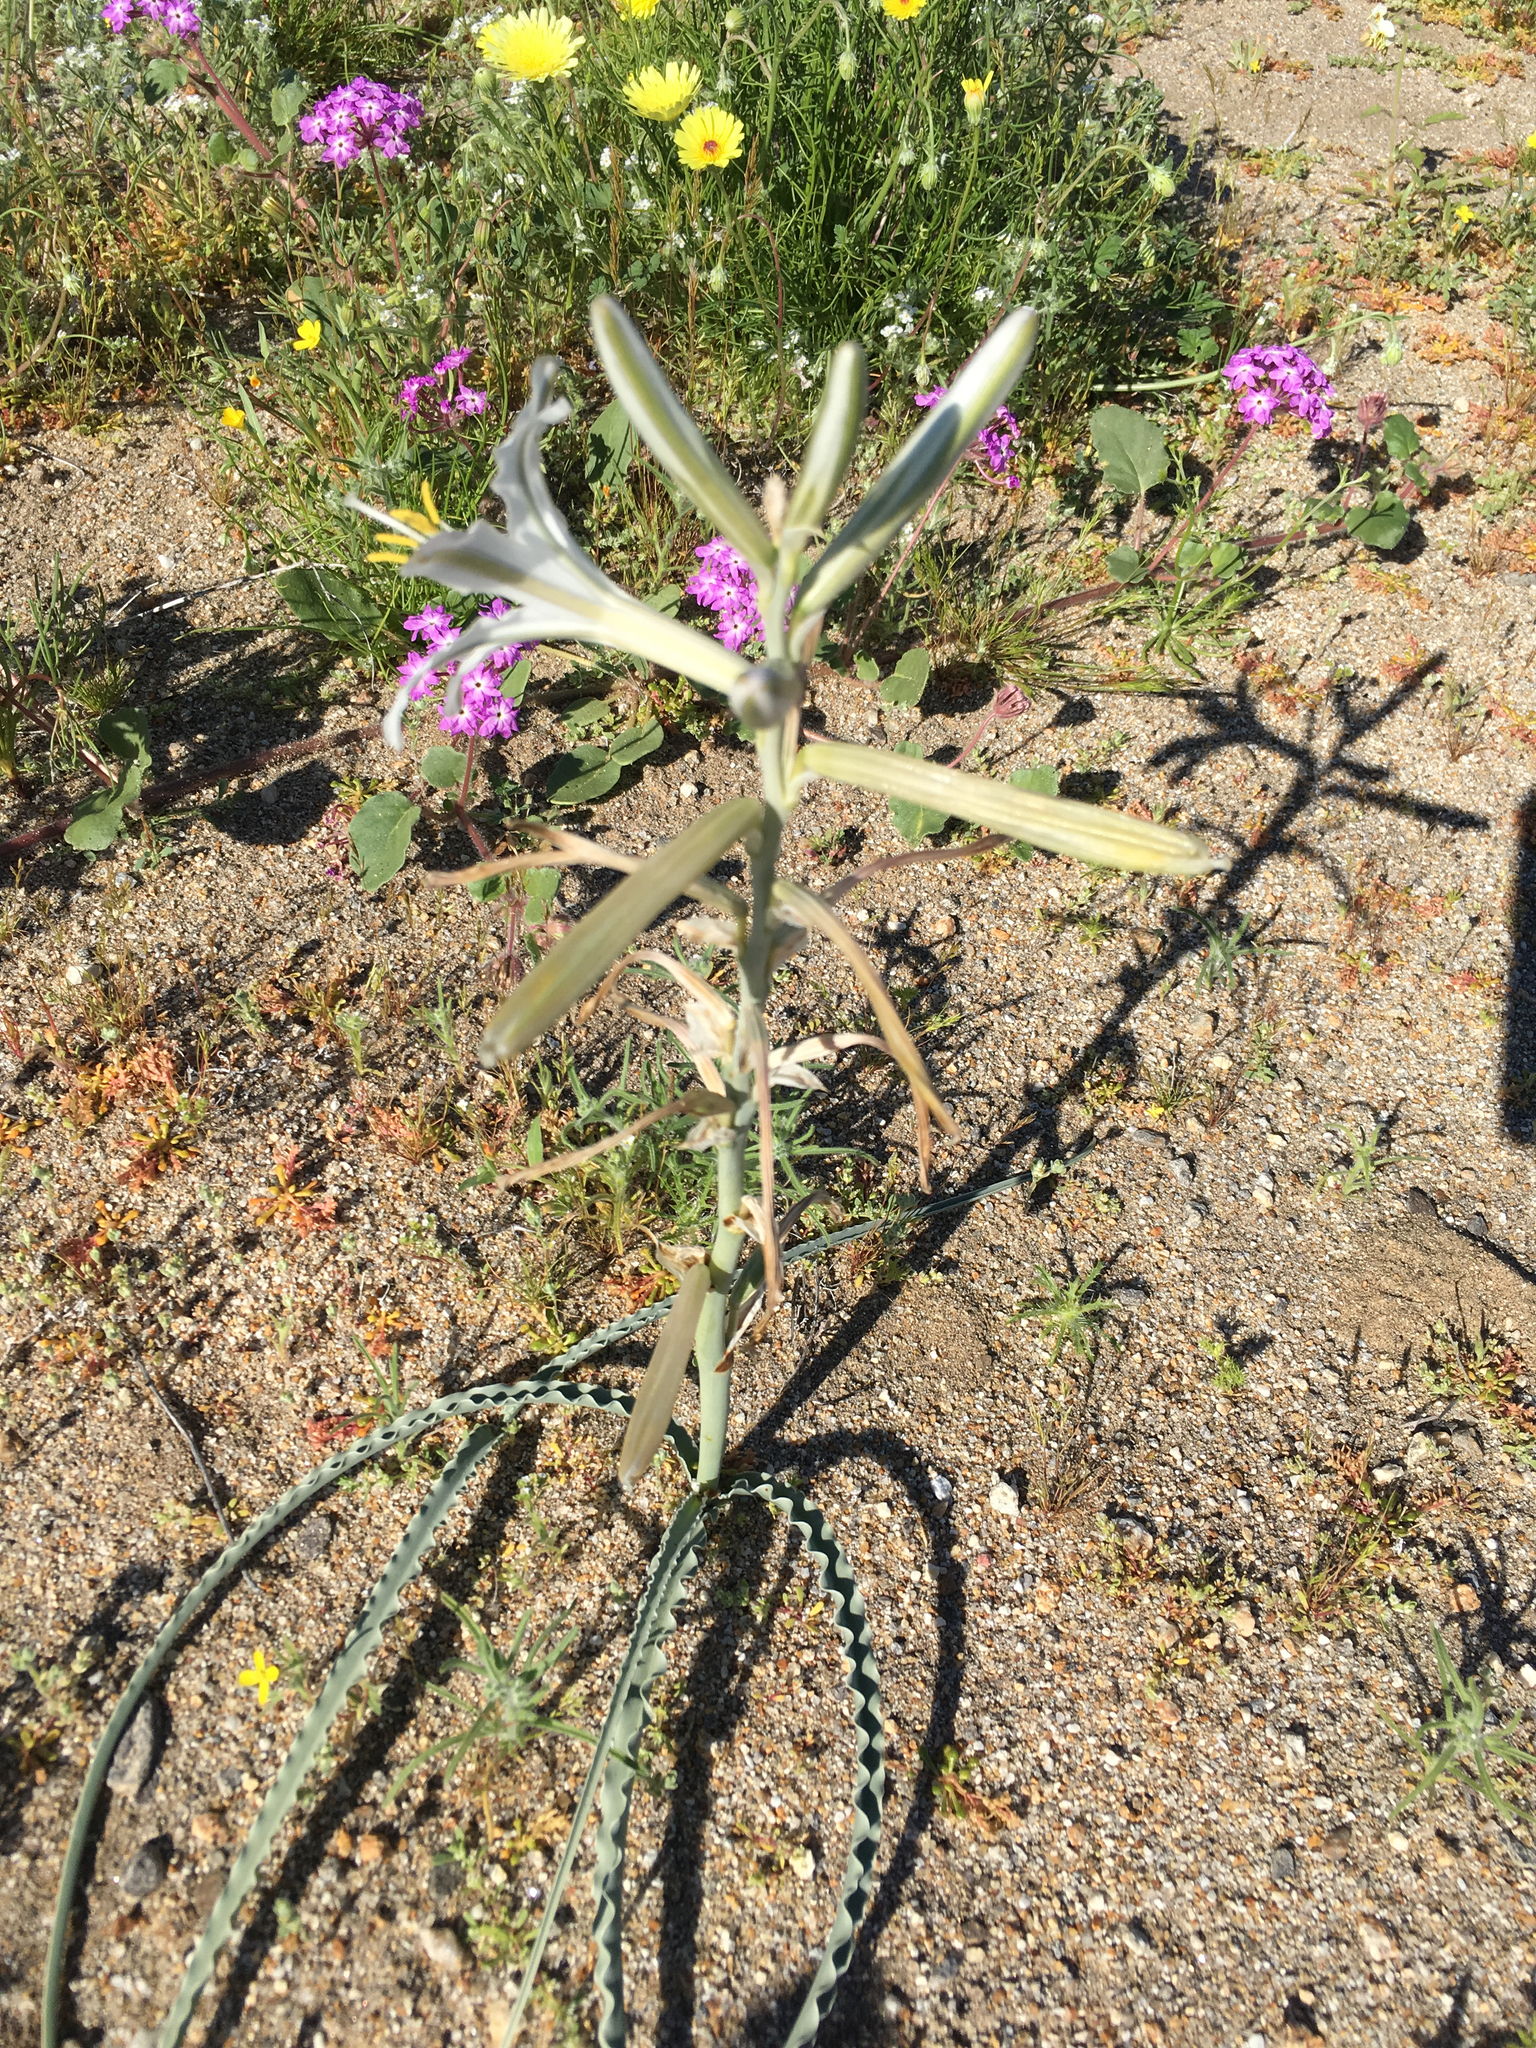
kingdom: Plantae
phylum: Tracheophyta
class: Liliopsida
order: Asparagales
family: Asparagaceae
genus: Hesperocallis
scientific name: Hesperocallis undulata
